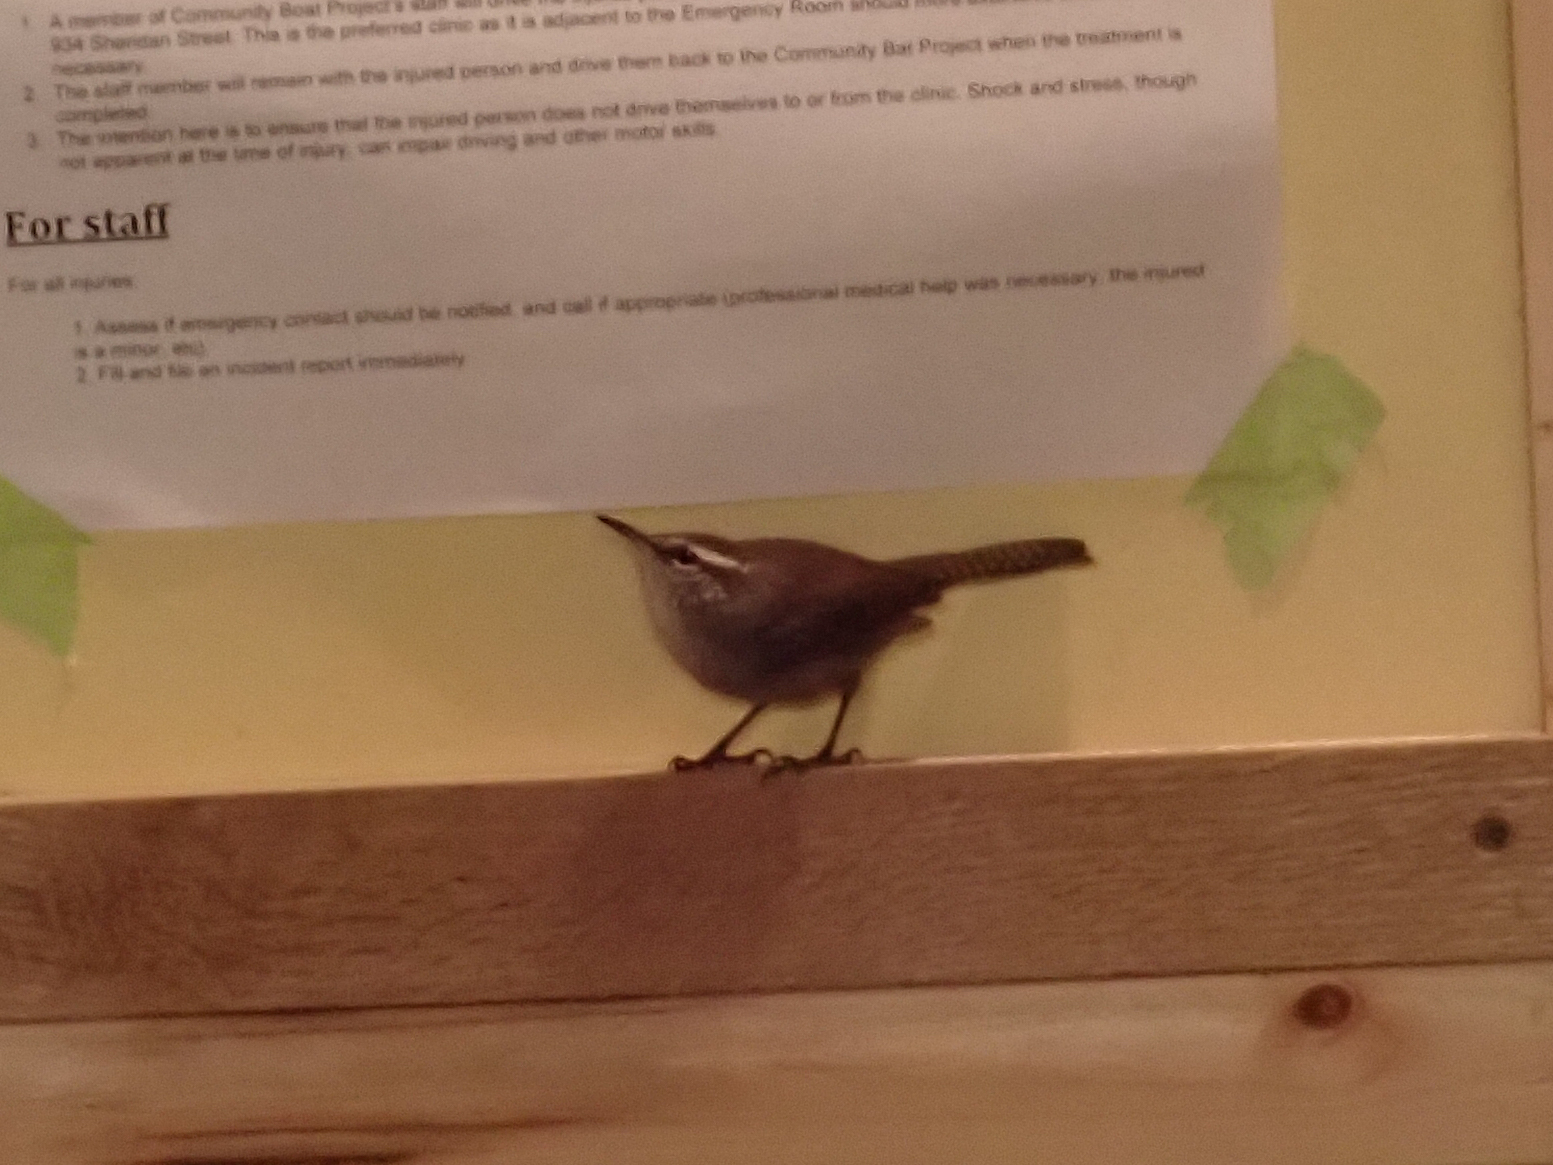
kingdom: Animalia
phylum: Chordata
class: Aves
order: Passeriformes
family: Troglodytidae
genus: Thryomanes
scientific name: Thryomanes bewickii
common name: Bewick's wren
